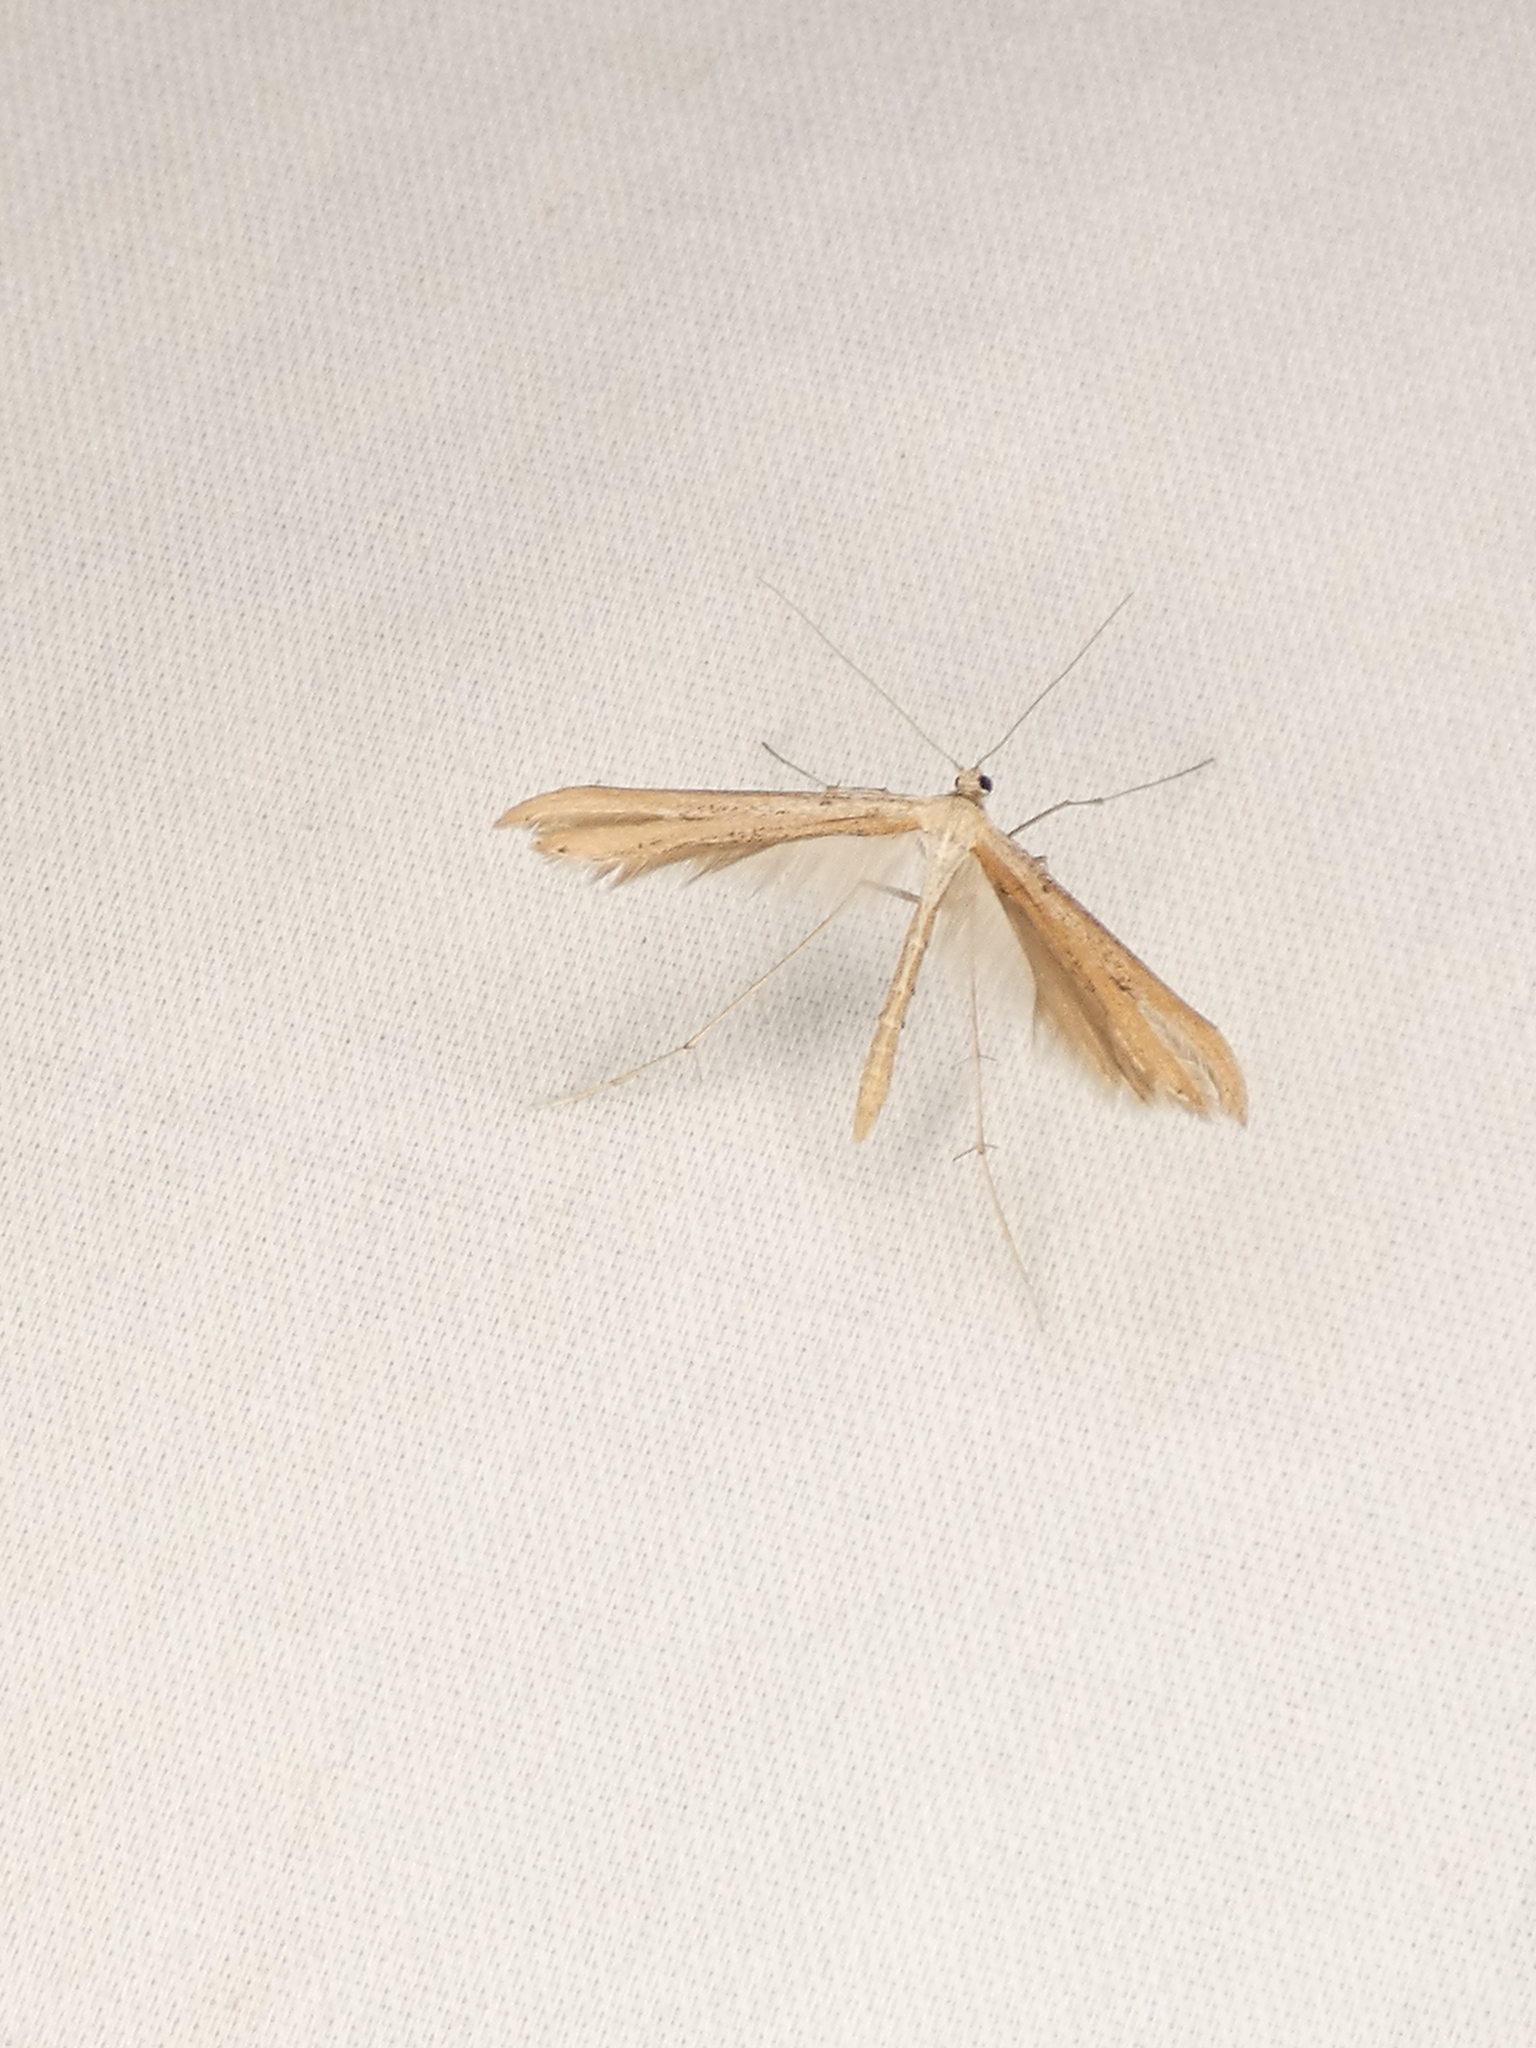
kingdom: Animalia
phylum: Arthropoda
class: Insecta
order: Lepidoptera
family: Pterophoridae
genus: Emmelina
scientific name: Emmelina monodactyla
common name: Common plume
